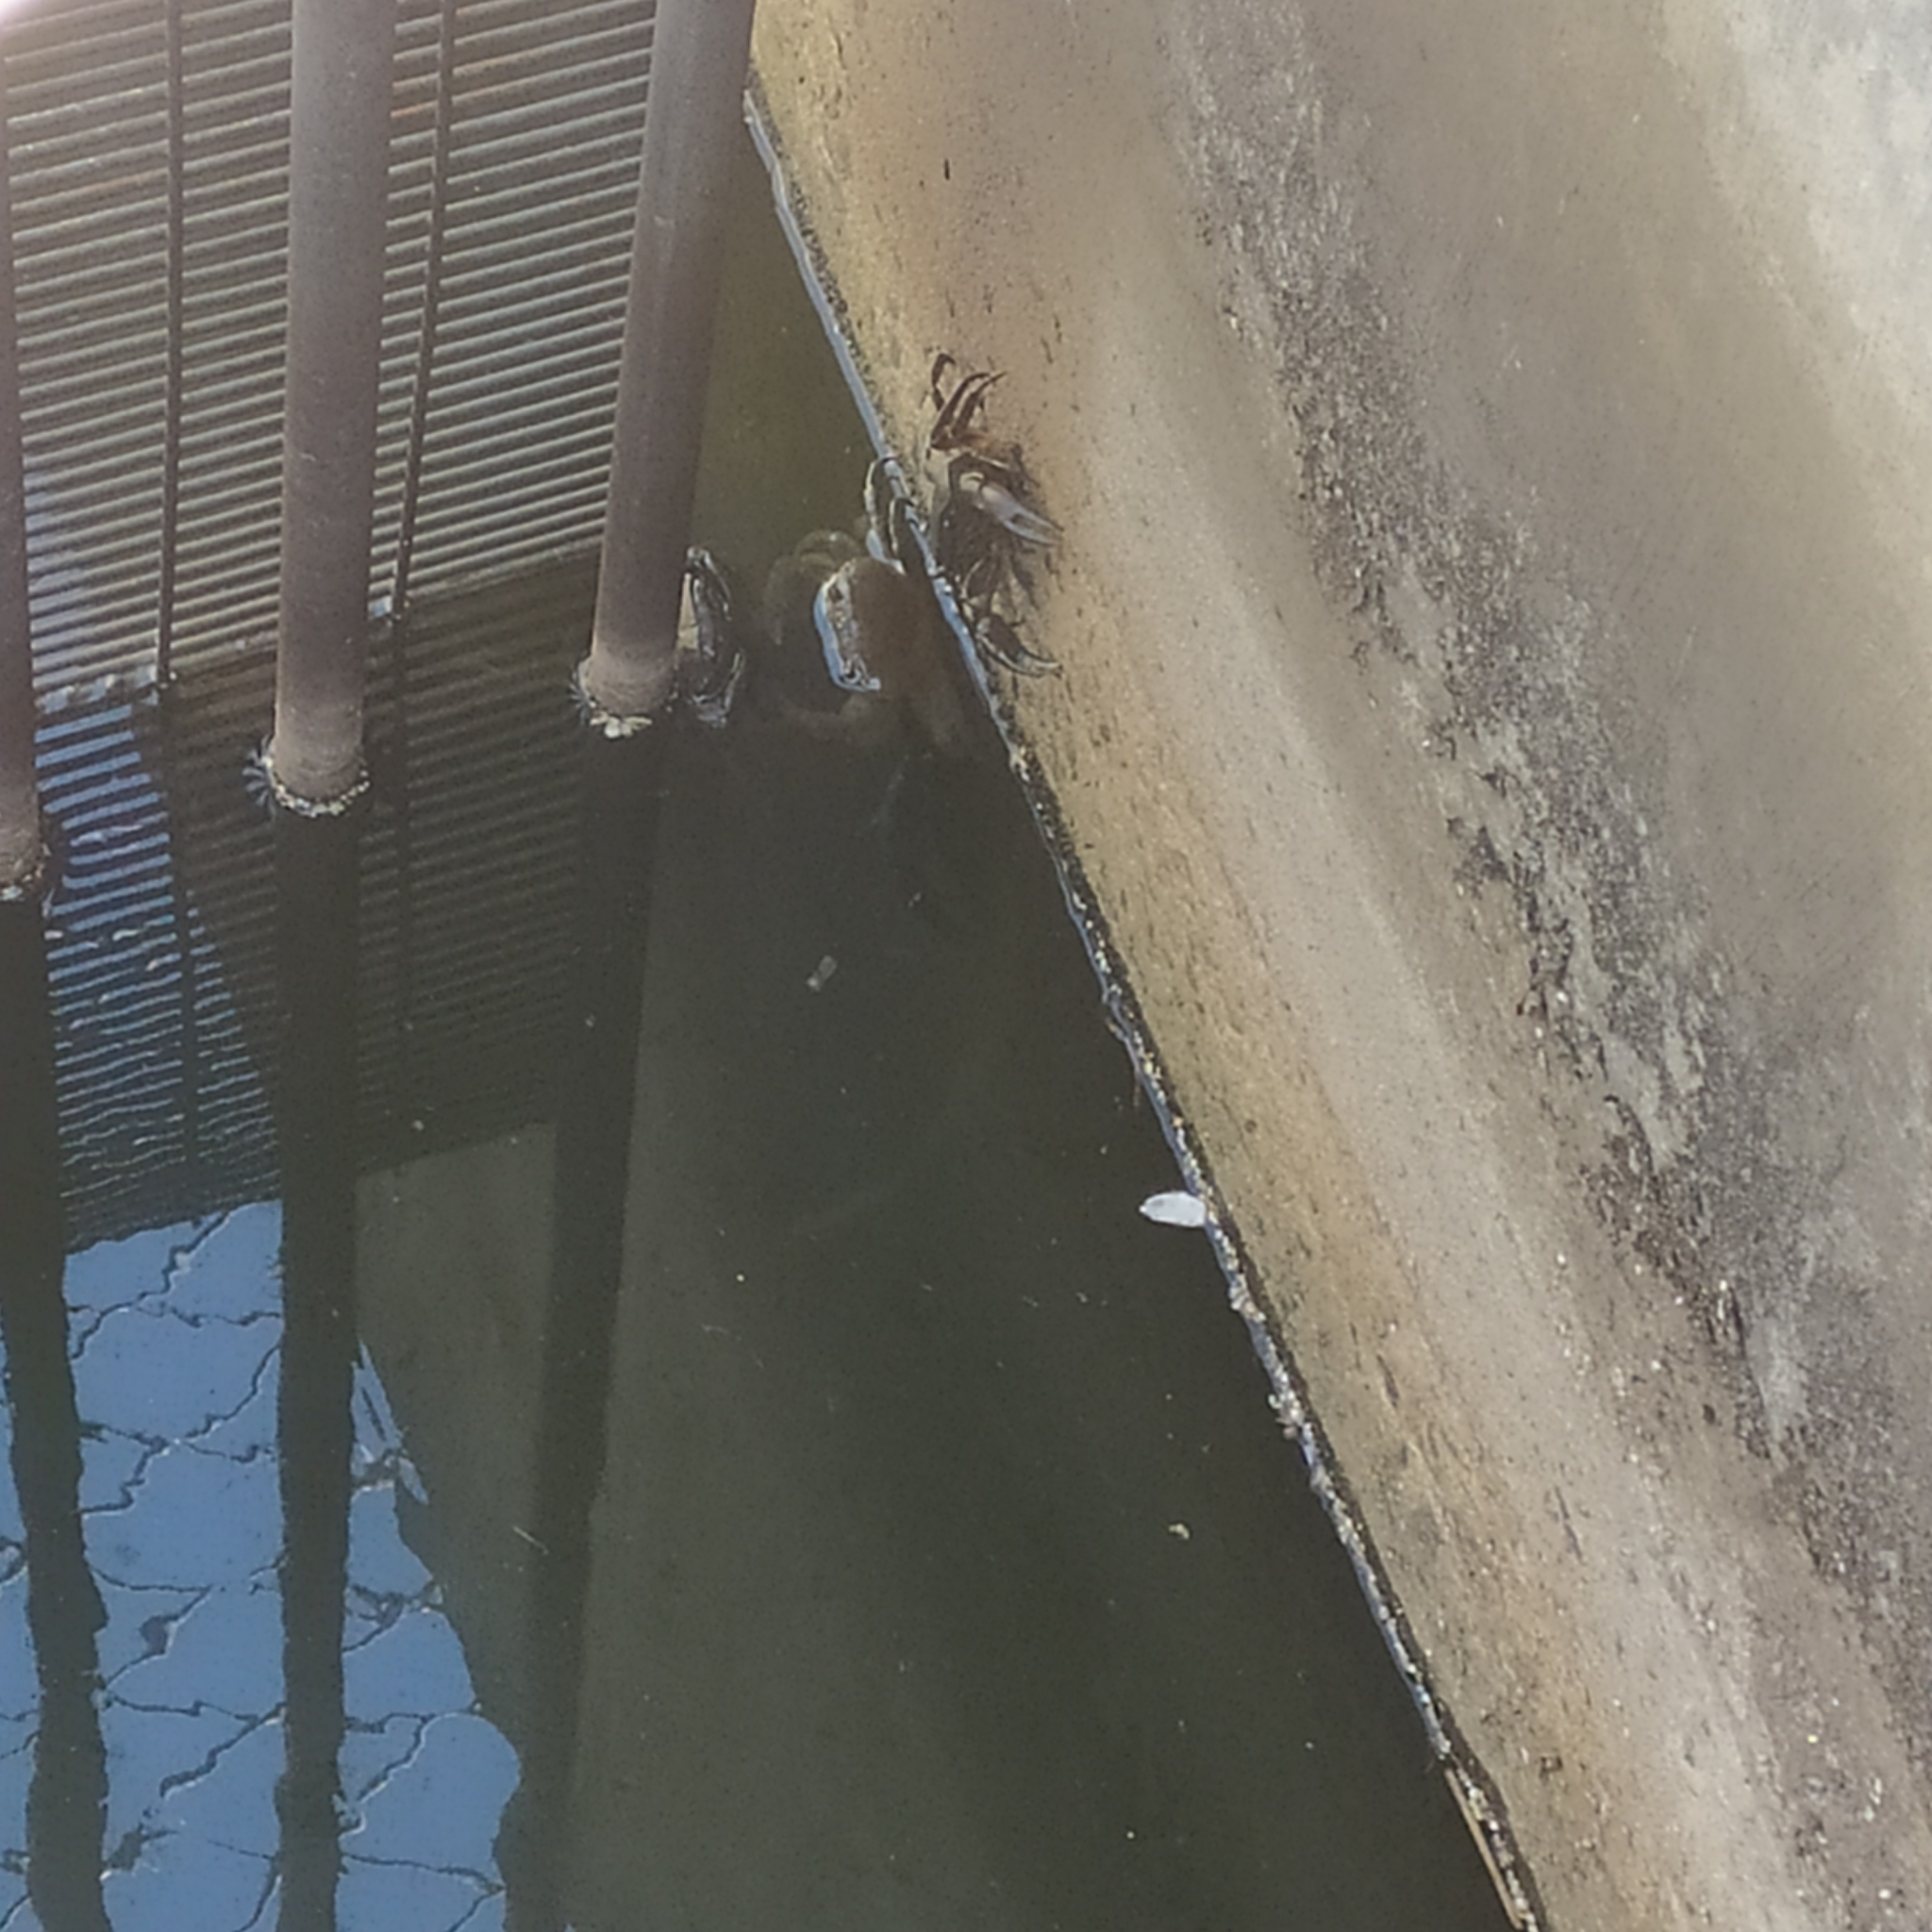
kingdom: Animalia
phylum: Arthropoda
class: Malacostraca
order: Decapoda
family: Potamonautidae
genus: Potamonautes
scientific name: Potamonautes perlatus
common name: Cape river crab
